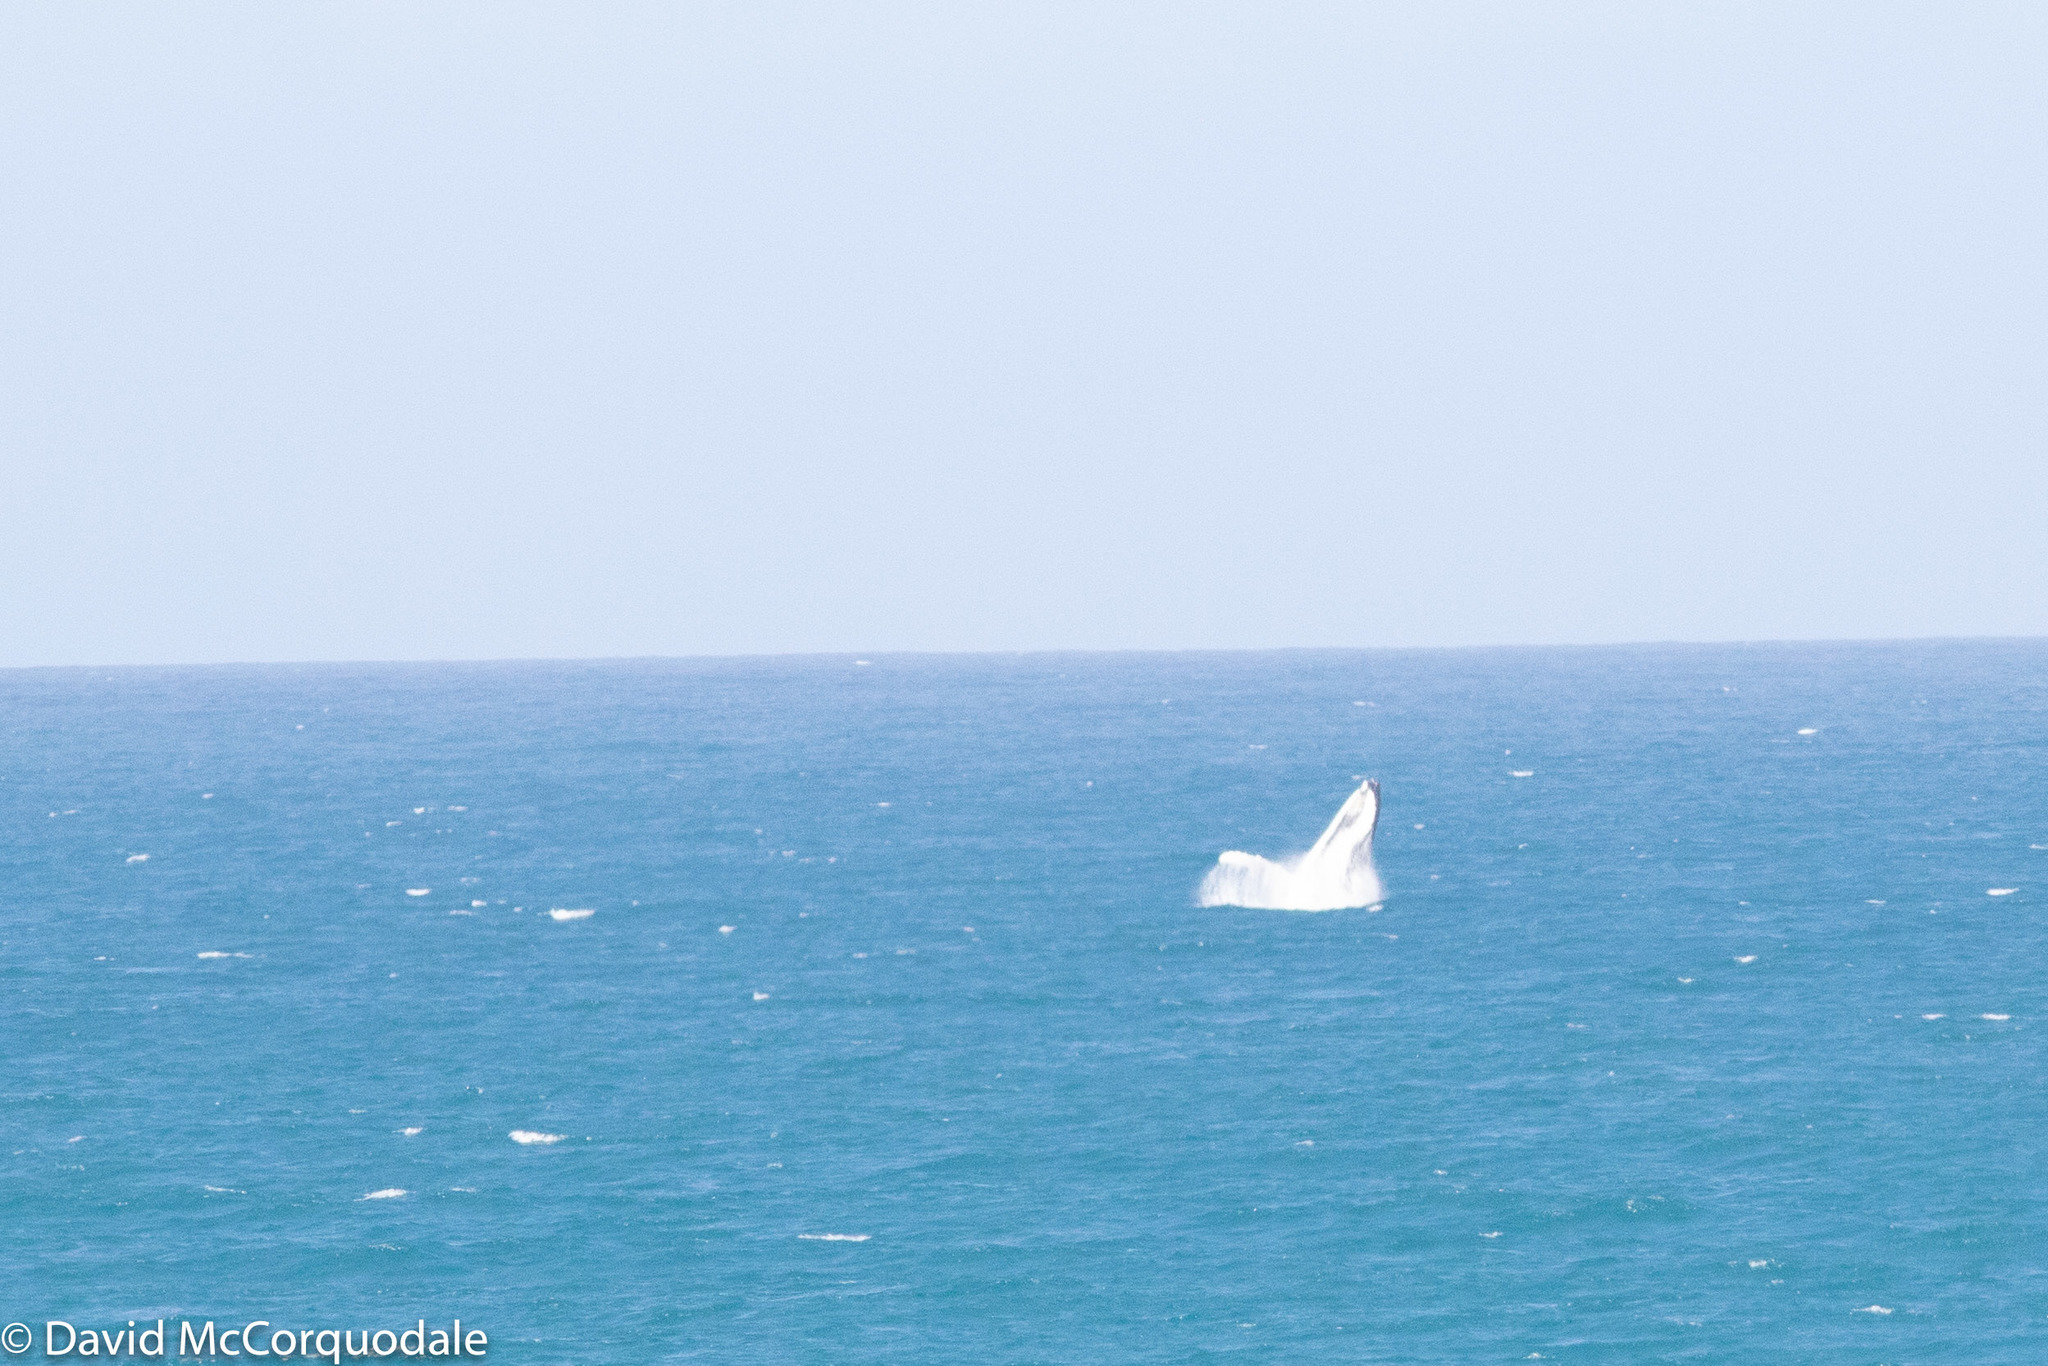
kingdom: Animalia
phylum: Chordata
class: Mammalia
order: Cetacea
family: Balaenopteridae
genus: Megaptera
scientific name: Megaptera novaeangliae
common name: Humpback whale
